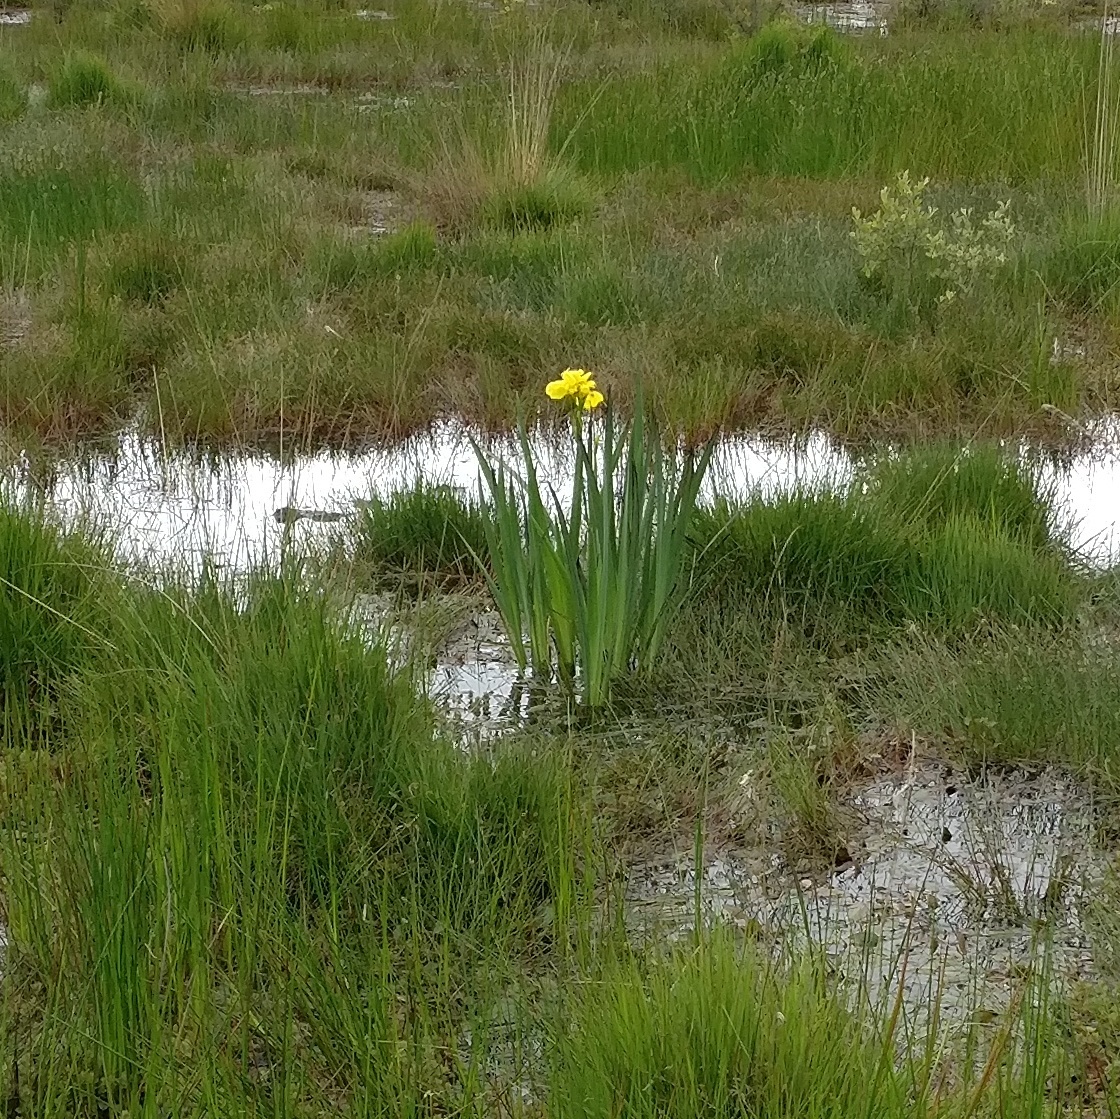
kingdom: Plantae
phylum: Tracheophyta
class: Liliopsida
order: Asparagales
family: Iridaceae
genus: Iris
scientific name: Iris pseudacorus
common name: Yellow flag
